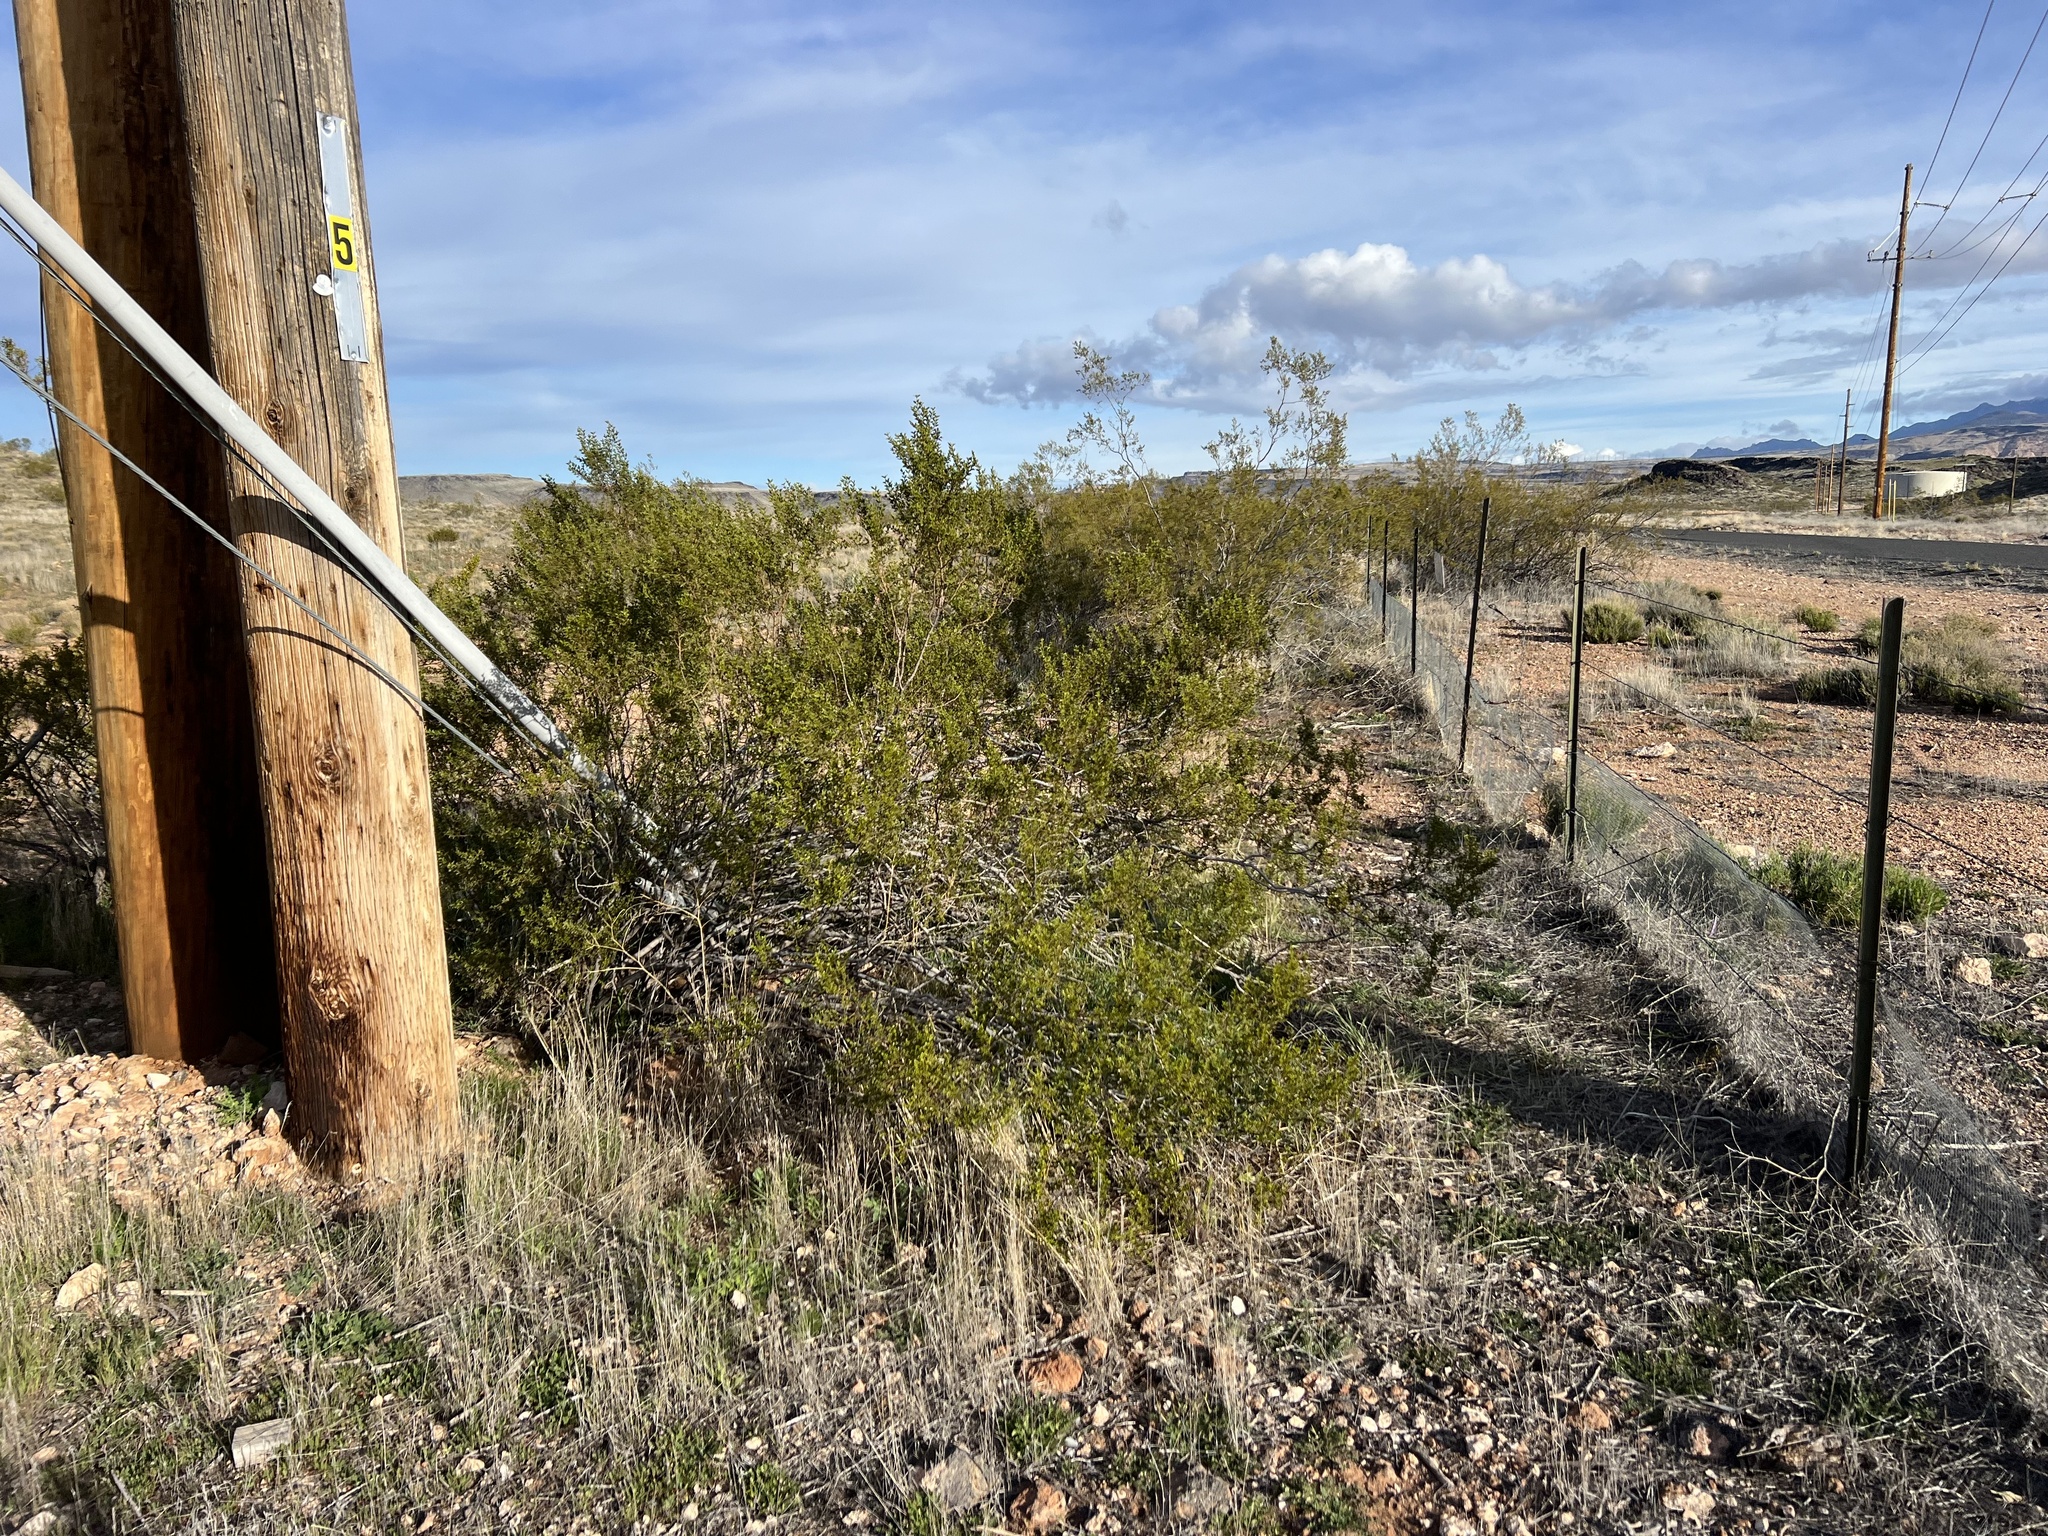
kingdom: Plantae
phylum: Tracheophyta
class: Magnoliopsida
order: Zygophyllales
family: Zygophyllaceae
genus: Larrea
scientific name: Larrea tridentata
